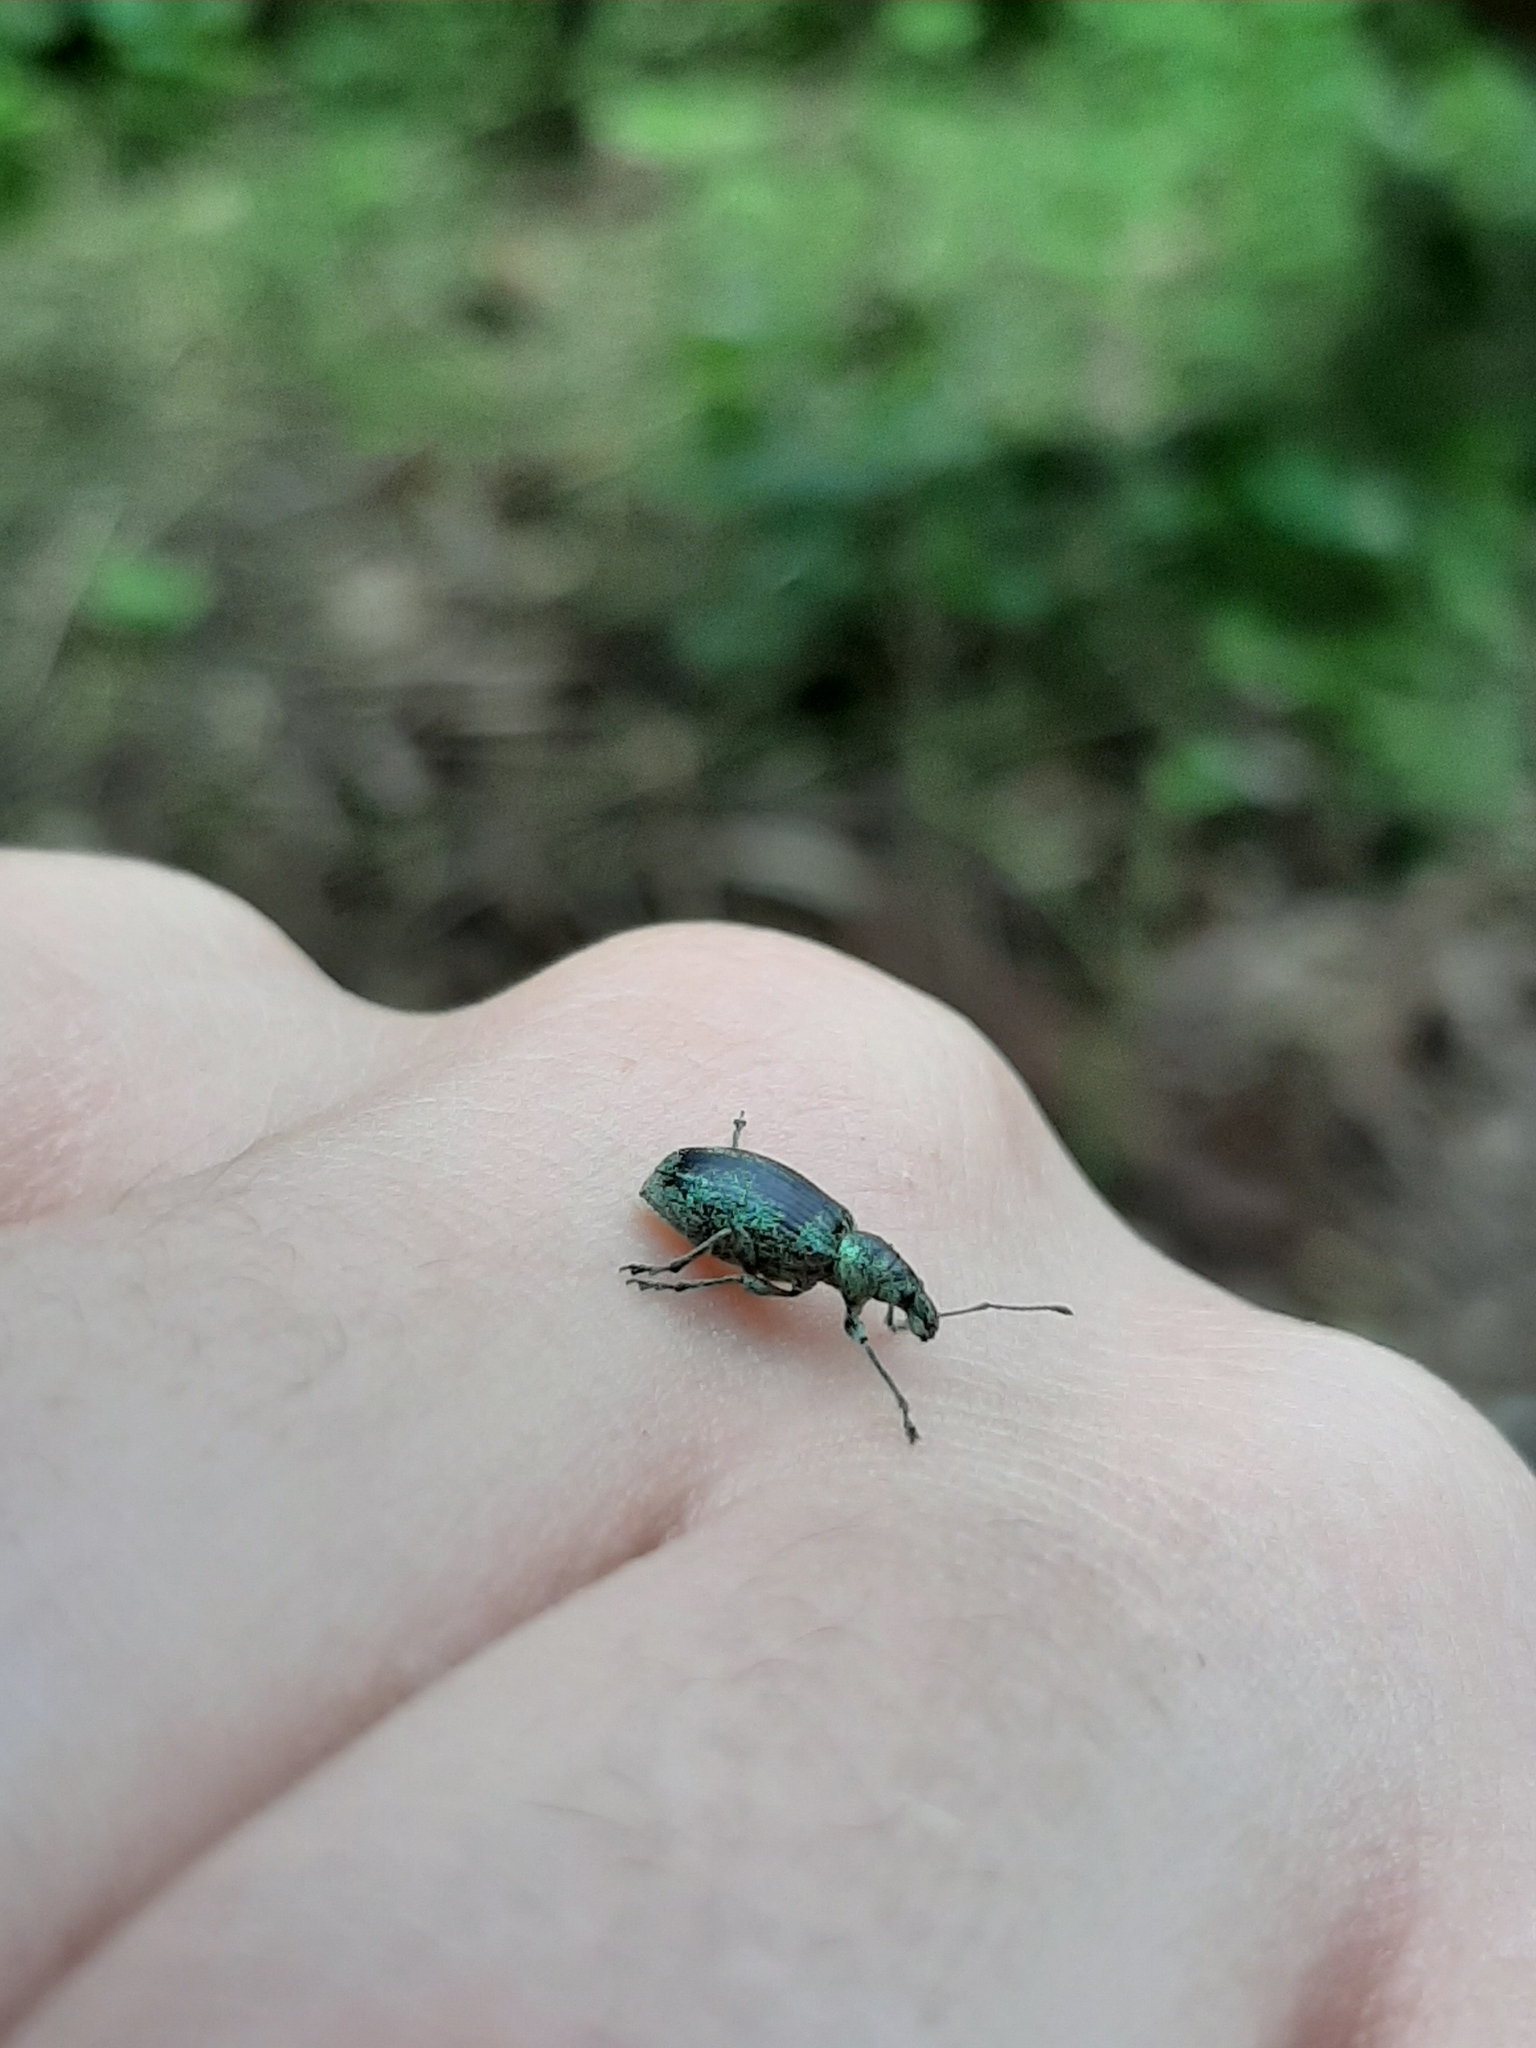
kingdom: Animalia
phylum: Arthropoda
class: Insecta
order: Coleoptera
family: Curculionidae
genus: Phyllobius
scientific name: Phyllobius pomaceus
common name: Green nettle weevil
